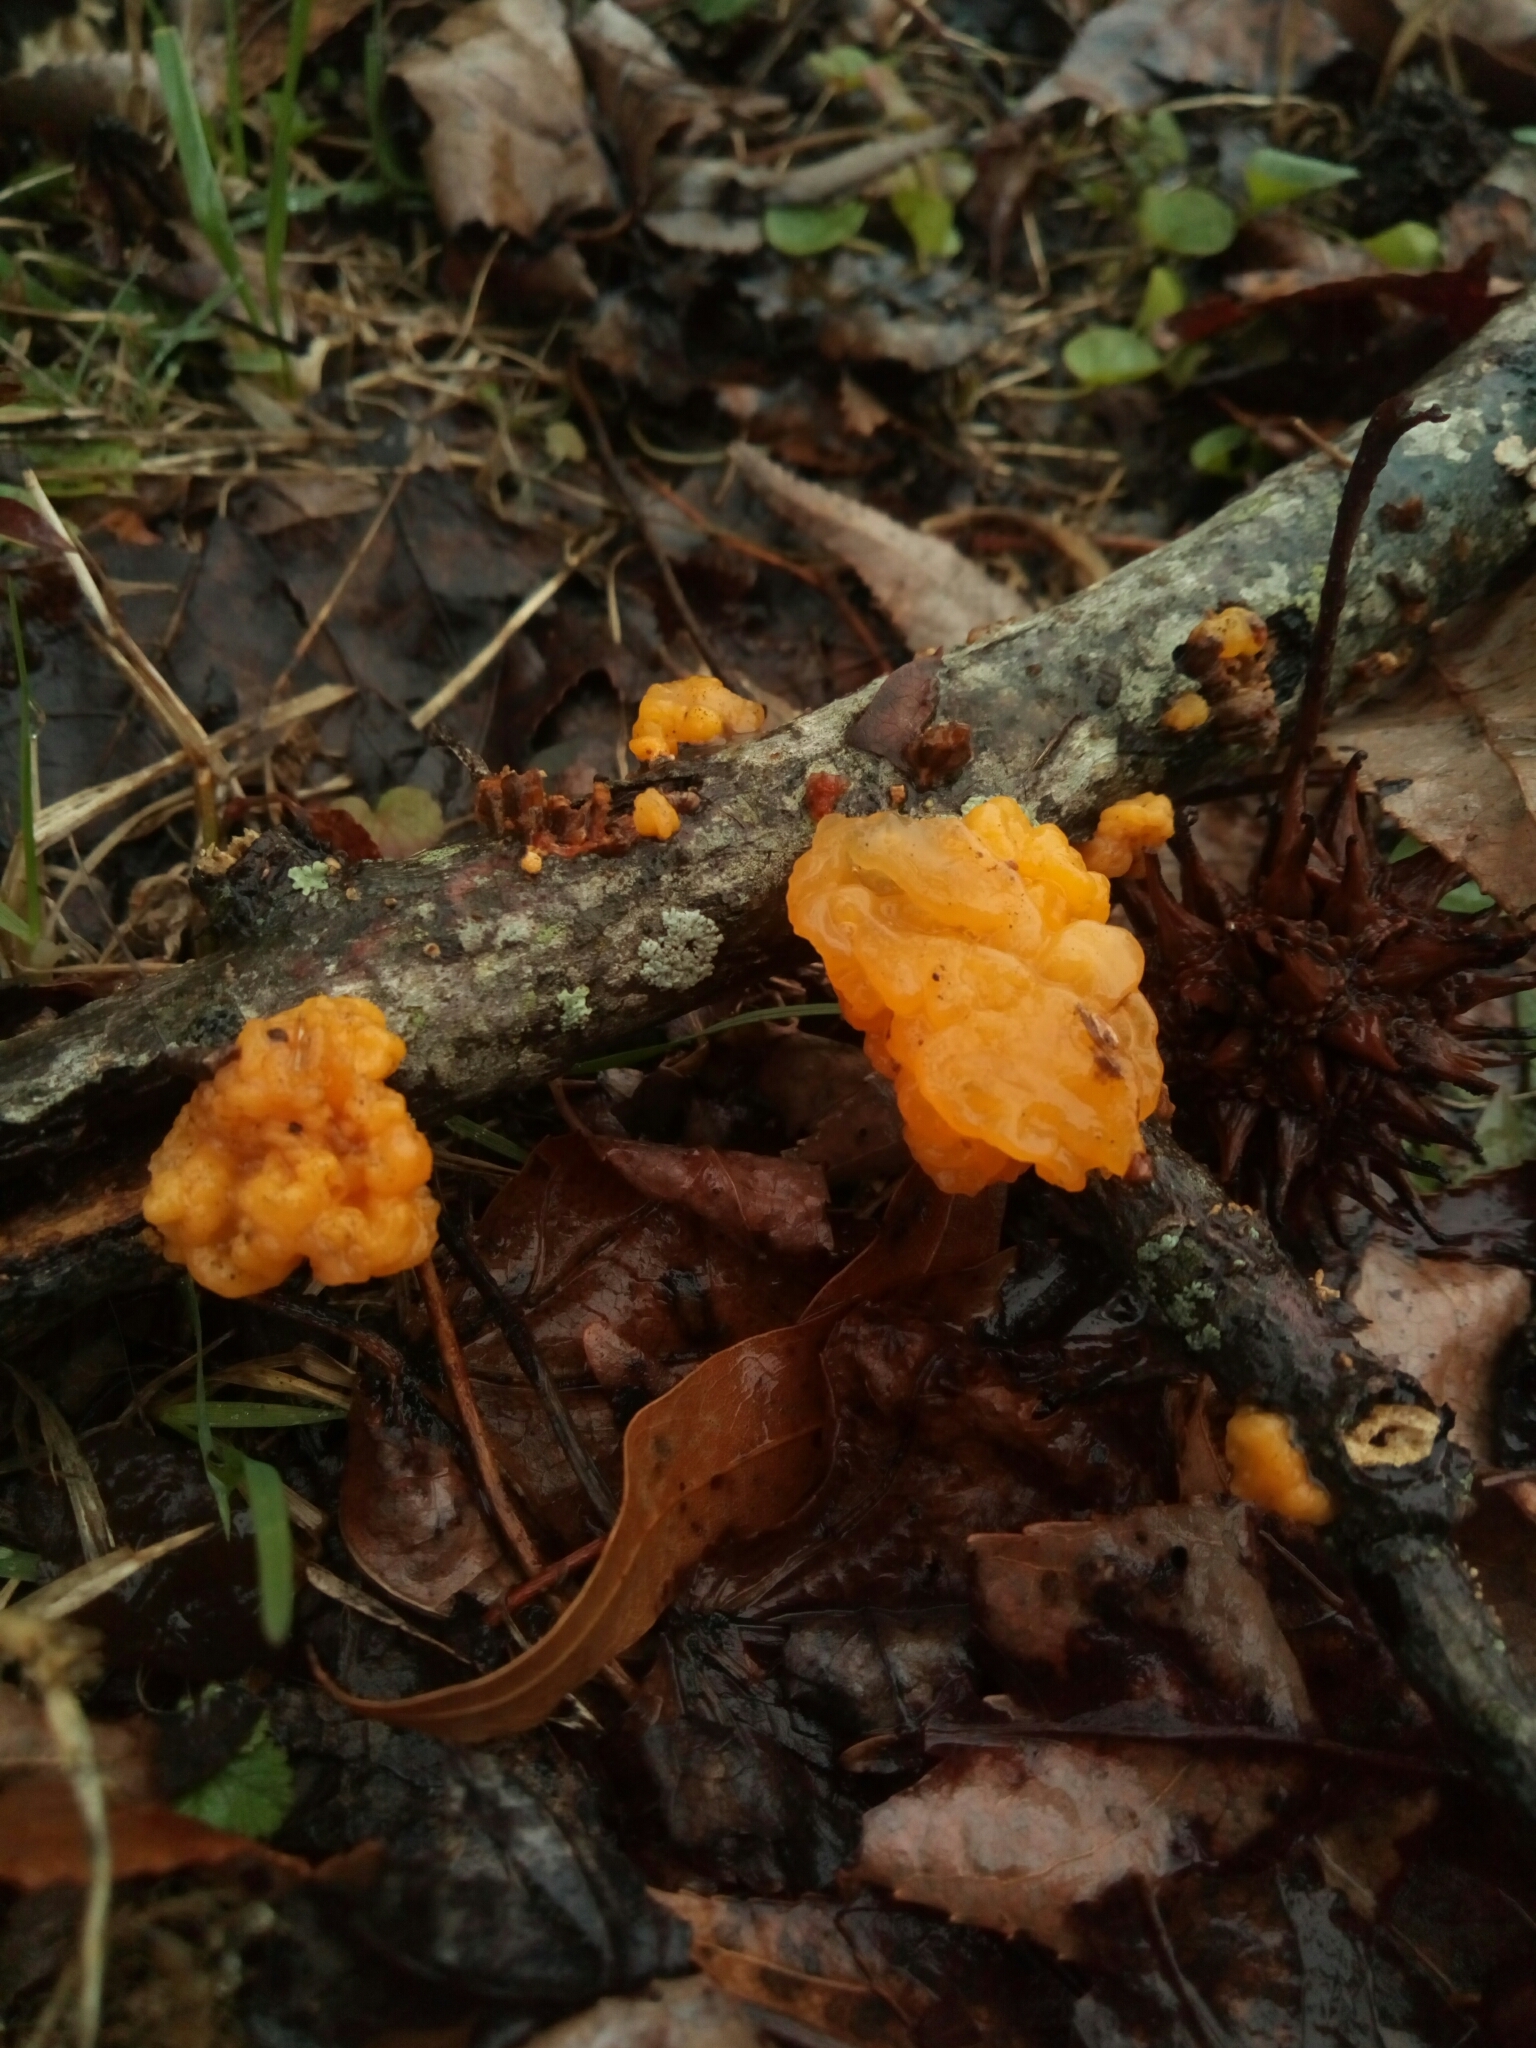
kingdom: Fungi
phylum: Basidiomycota
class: Tremellomycetes
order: Tremellales
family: Tremellaceae
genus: Tremella
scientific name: Tremella mesenterica
